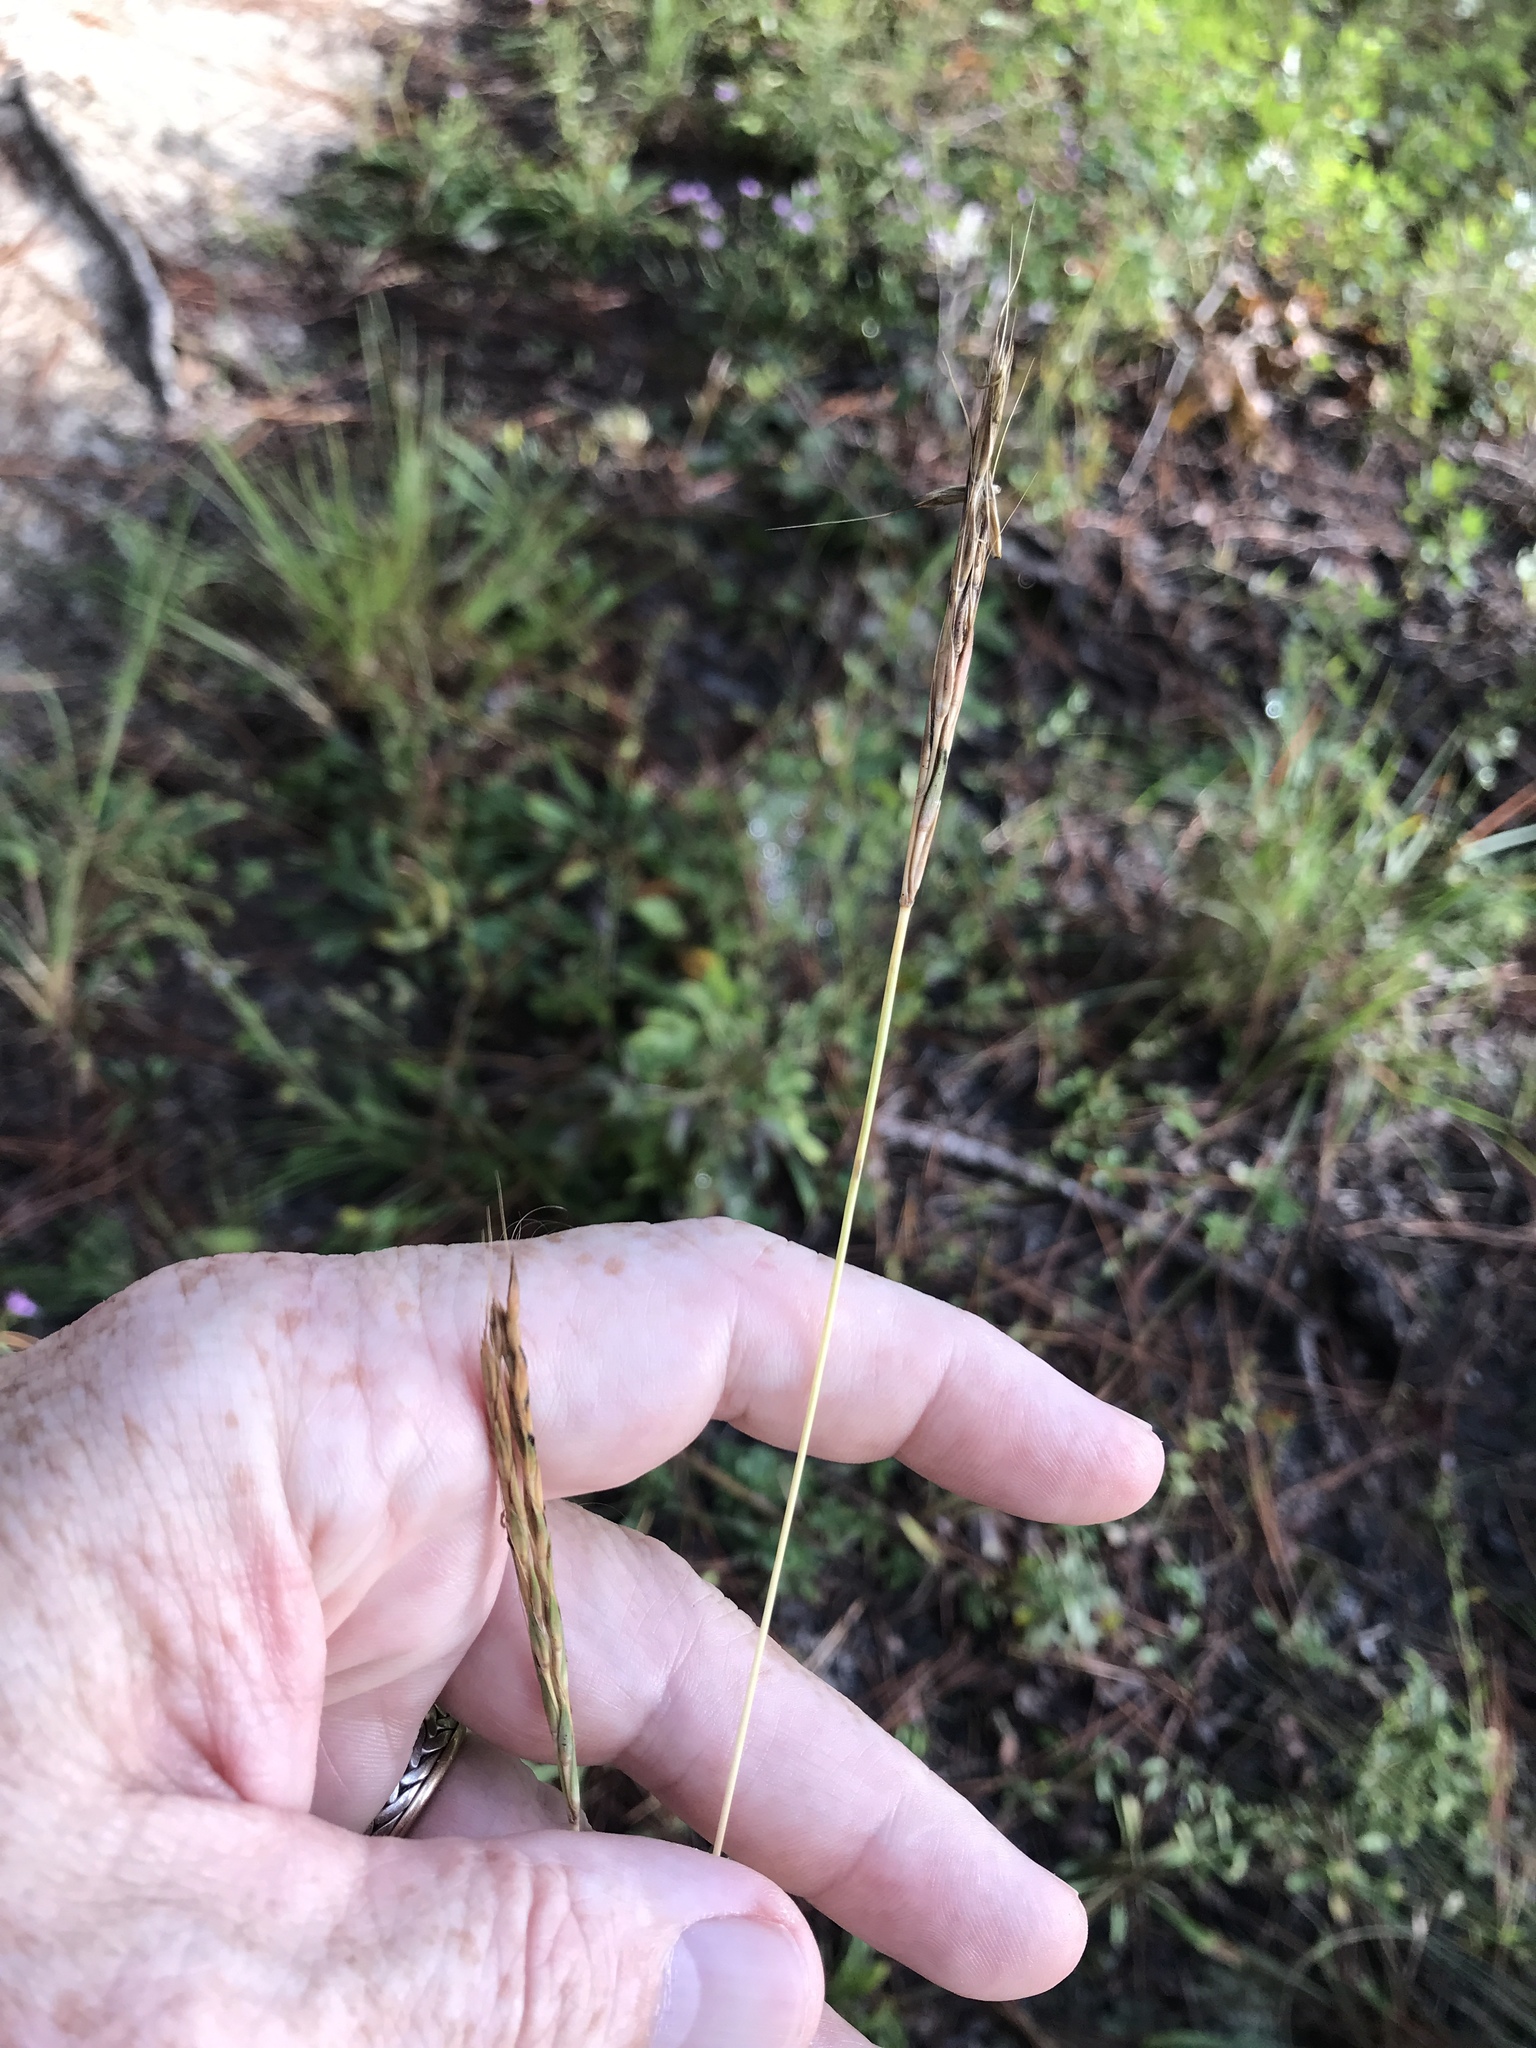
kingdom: Plantae
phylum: Tracheophyta
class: Liliopsida
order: Poales
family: Poaceae
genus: Andropogon
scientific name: Andropogon gerardi
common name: Big bluestem
